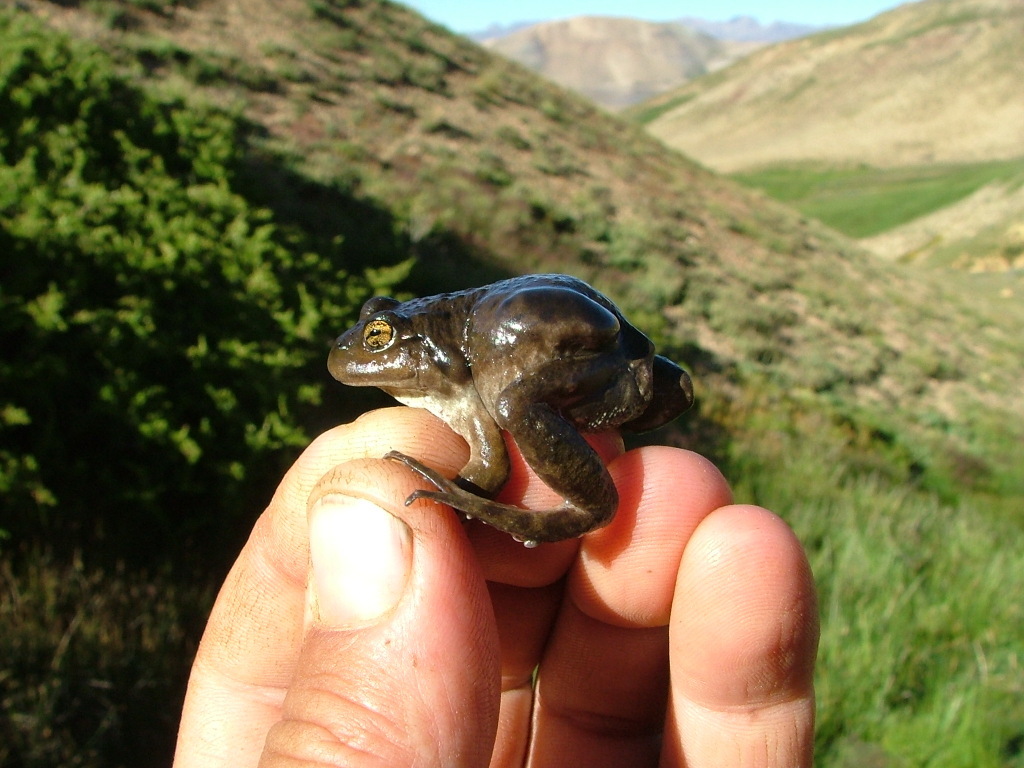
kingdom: Animalia
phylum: Chordata
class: Amphibia
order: Anura
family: Leptodactylidae
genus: Pleurodema
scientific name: Pleurodema bufoninum
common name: Large four-eyed frog
